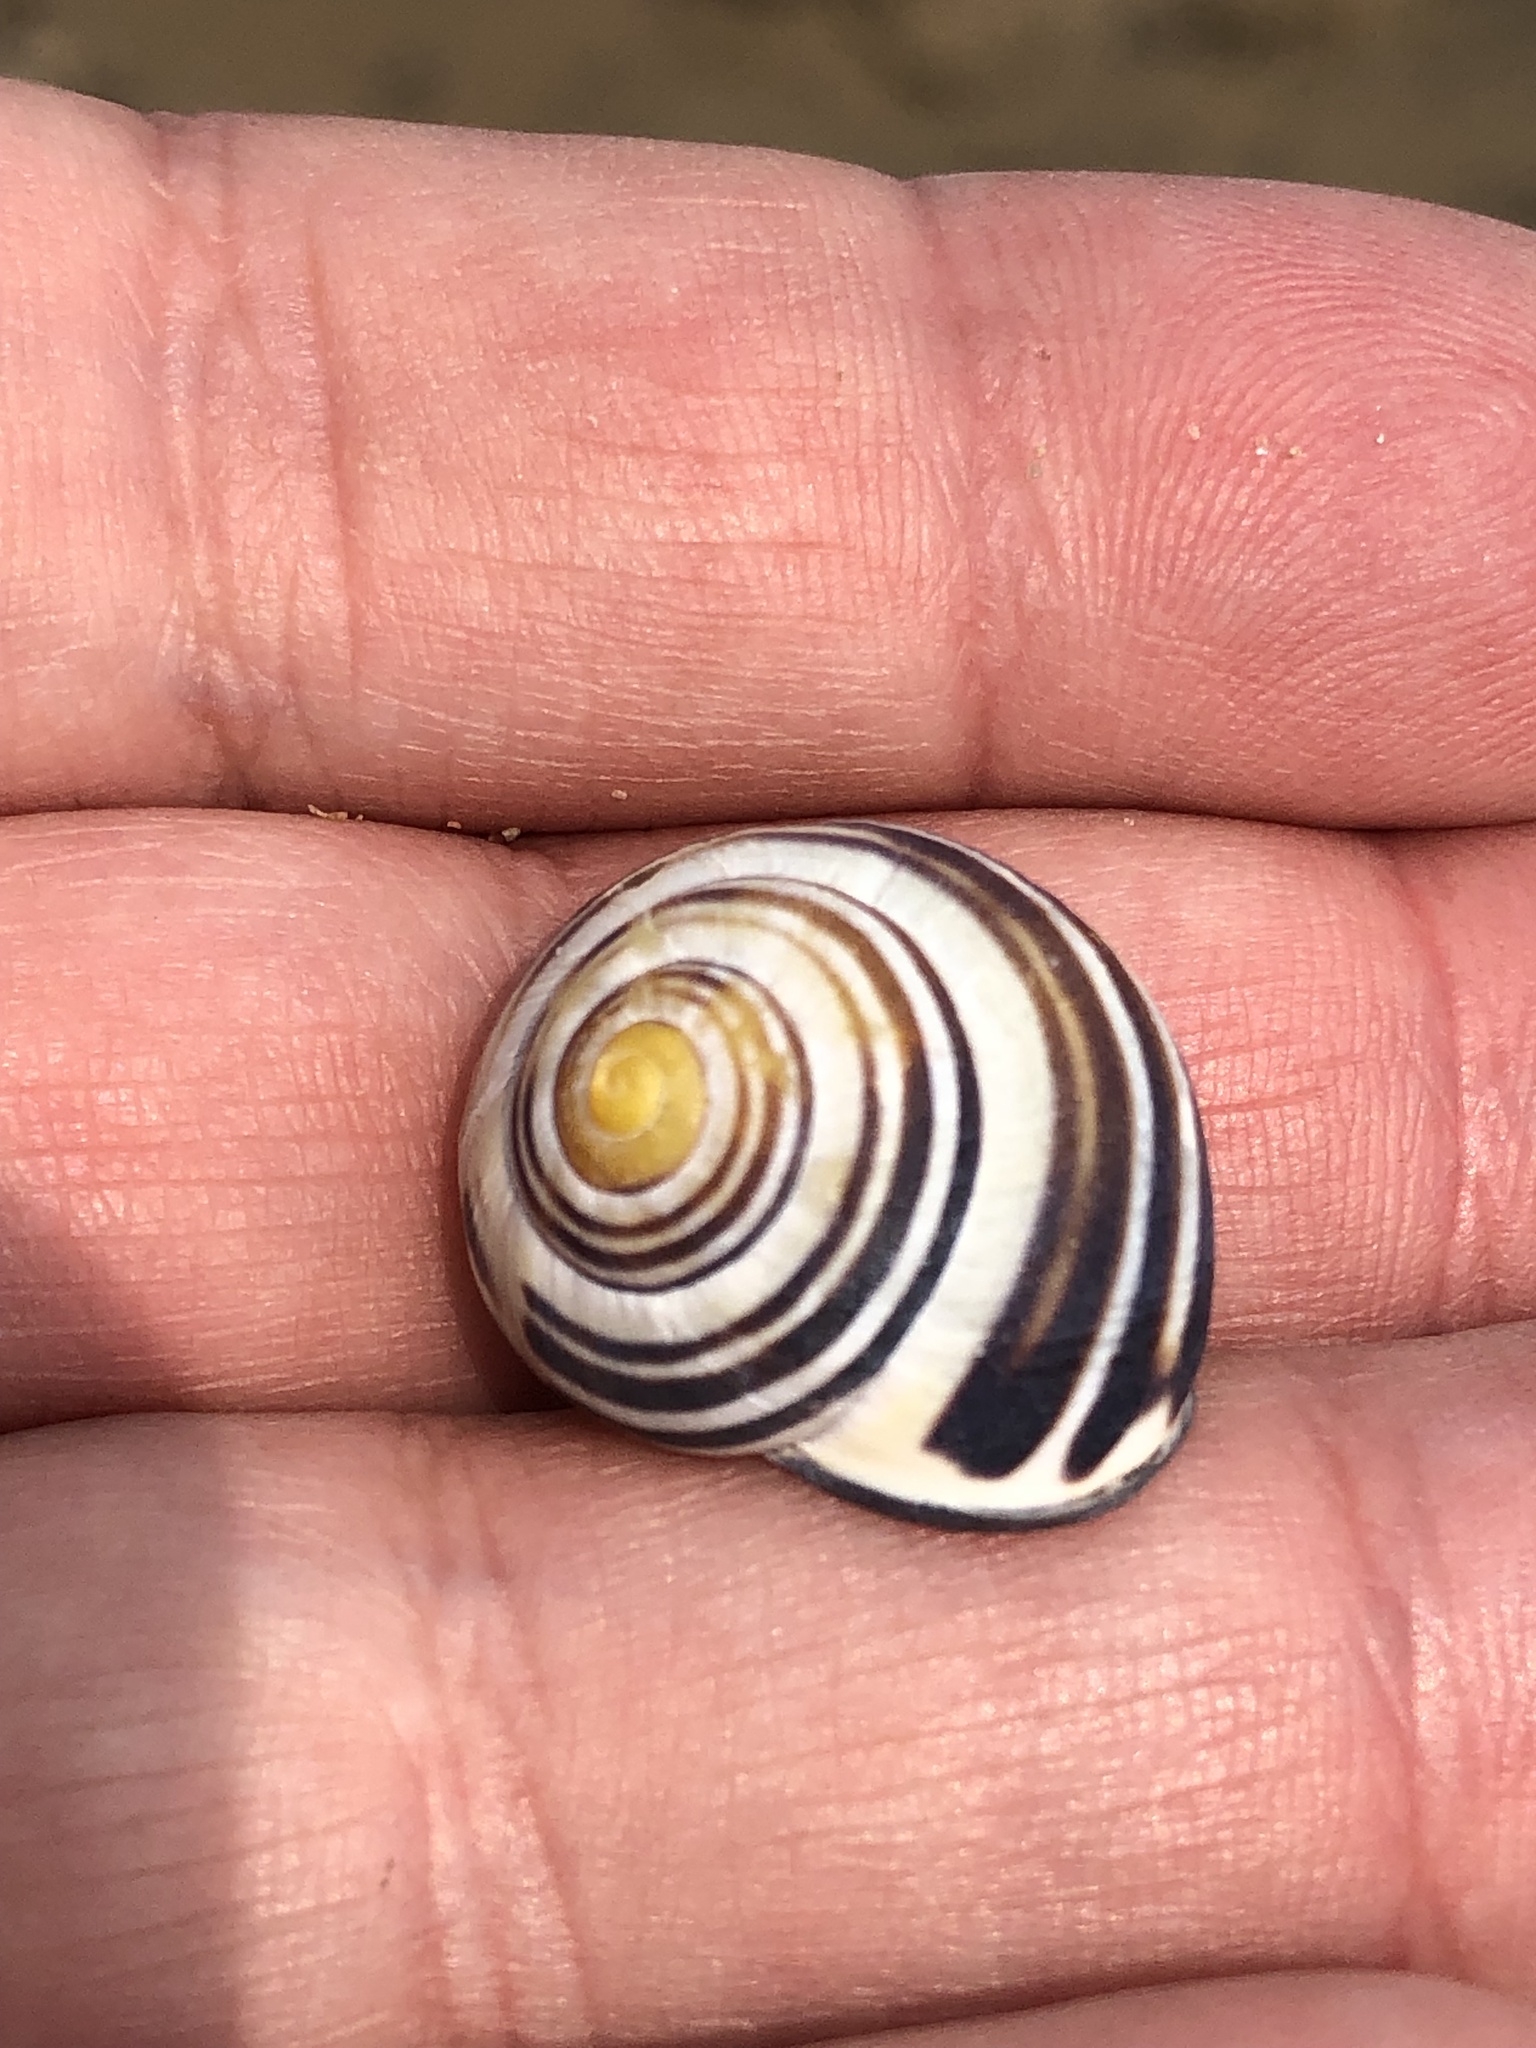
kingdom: Animalia
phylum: Mollusca
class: Gastropoda
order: Stylommatophora
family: Helicidae
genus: Cepaea
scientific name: Cepaea nemoralis
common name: Grovesnail
